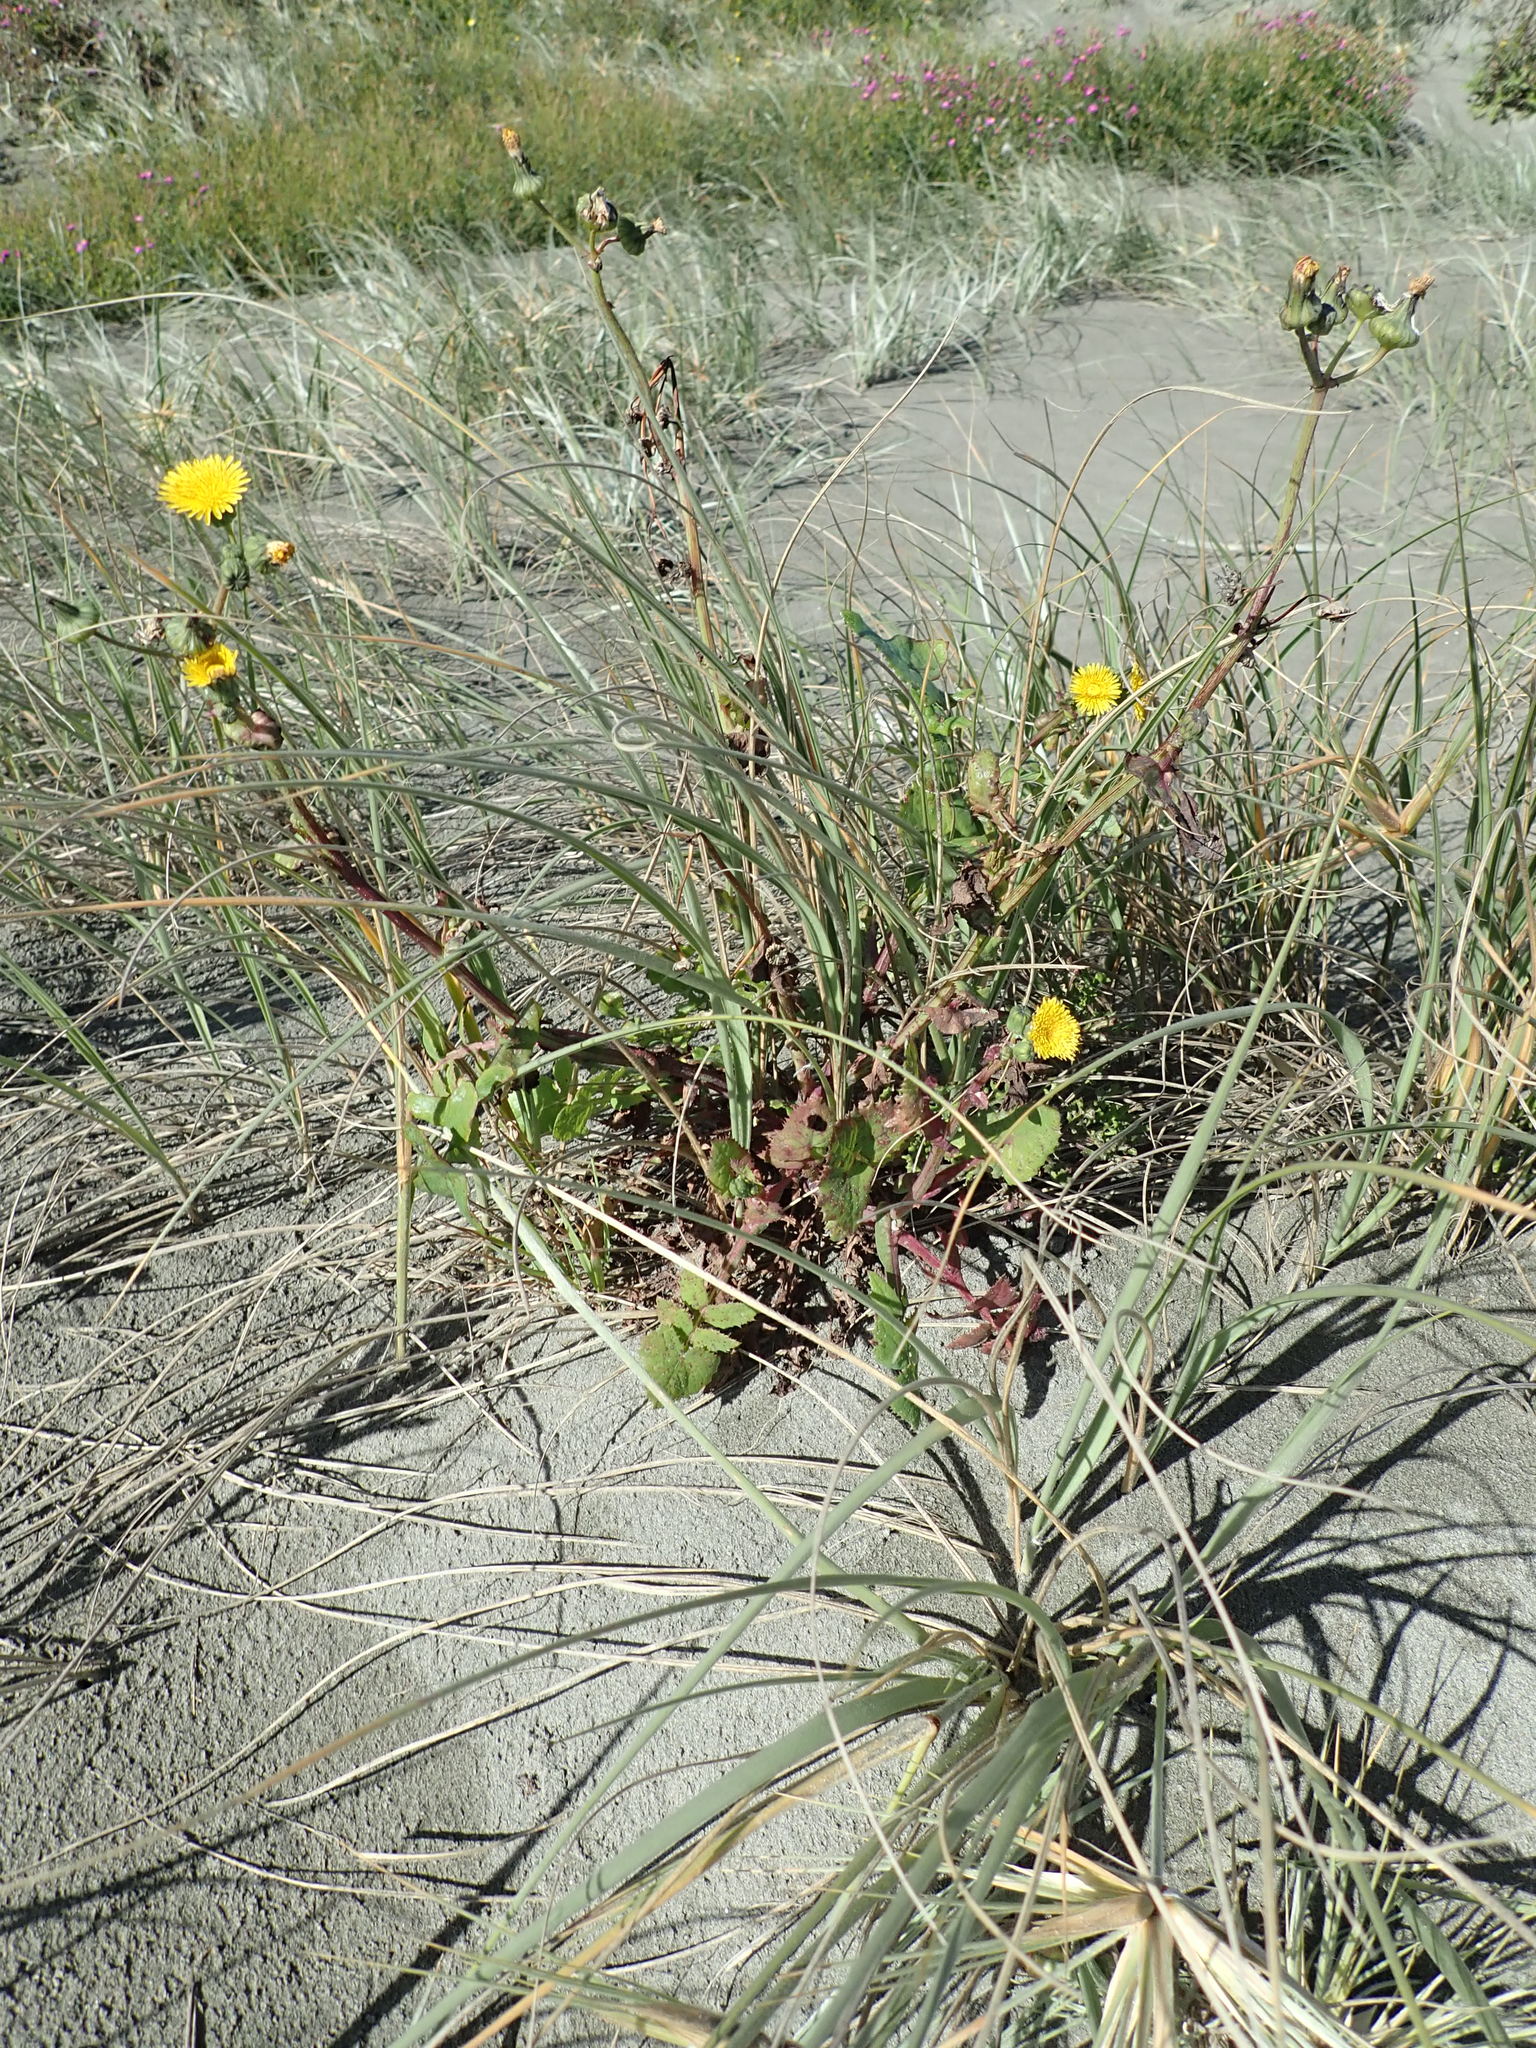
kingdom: Plantae
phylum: Tracheophyta
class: Magnoliopsida
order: Asterales
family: Asteraceae
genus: Sonchus
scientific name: Sonchus oleraceus
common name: Common sowthistle
